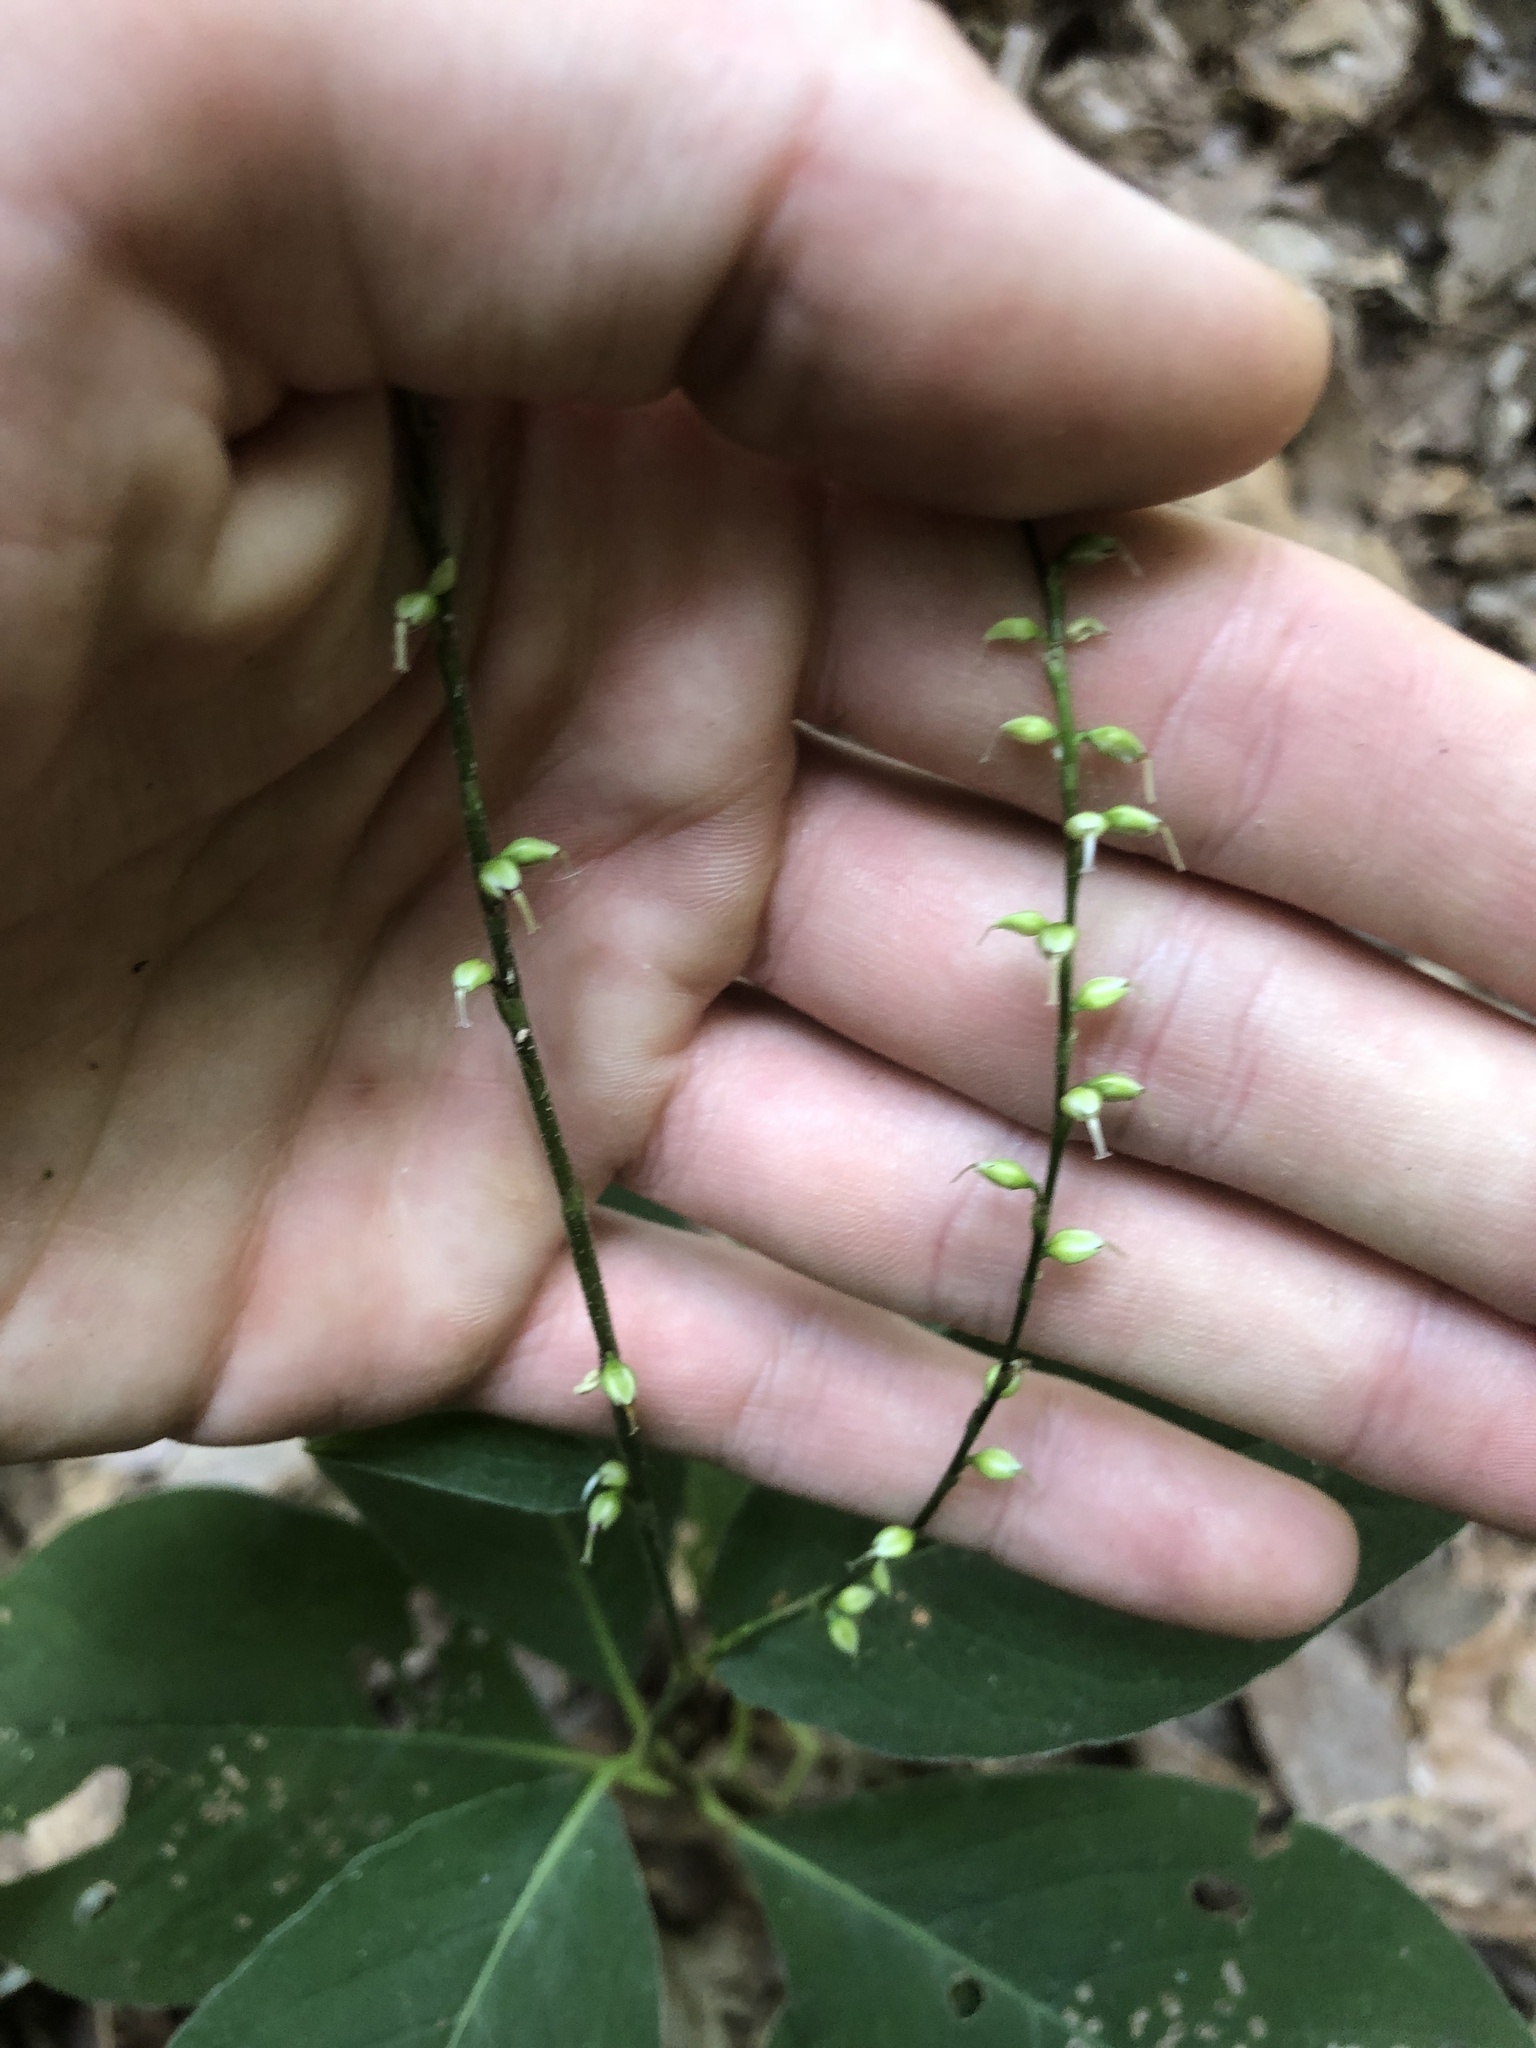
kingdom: Plantae
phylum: Tracheophyta
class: Magnoliopsida
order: Caryophyllales
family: Polygonaceae
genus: Persicaria
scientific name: Persicaria virginiana
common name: Jumpseed
